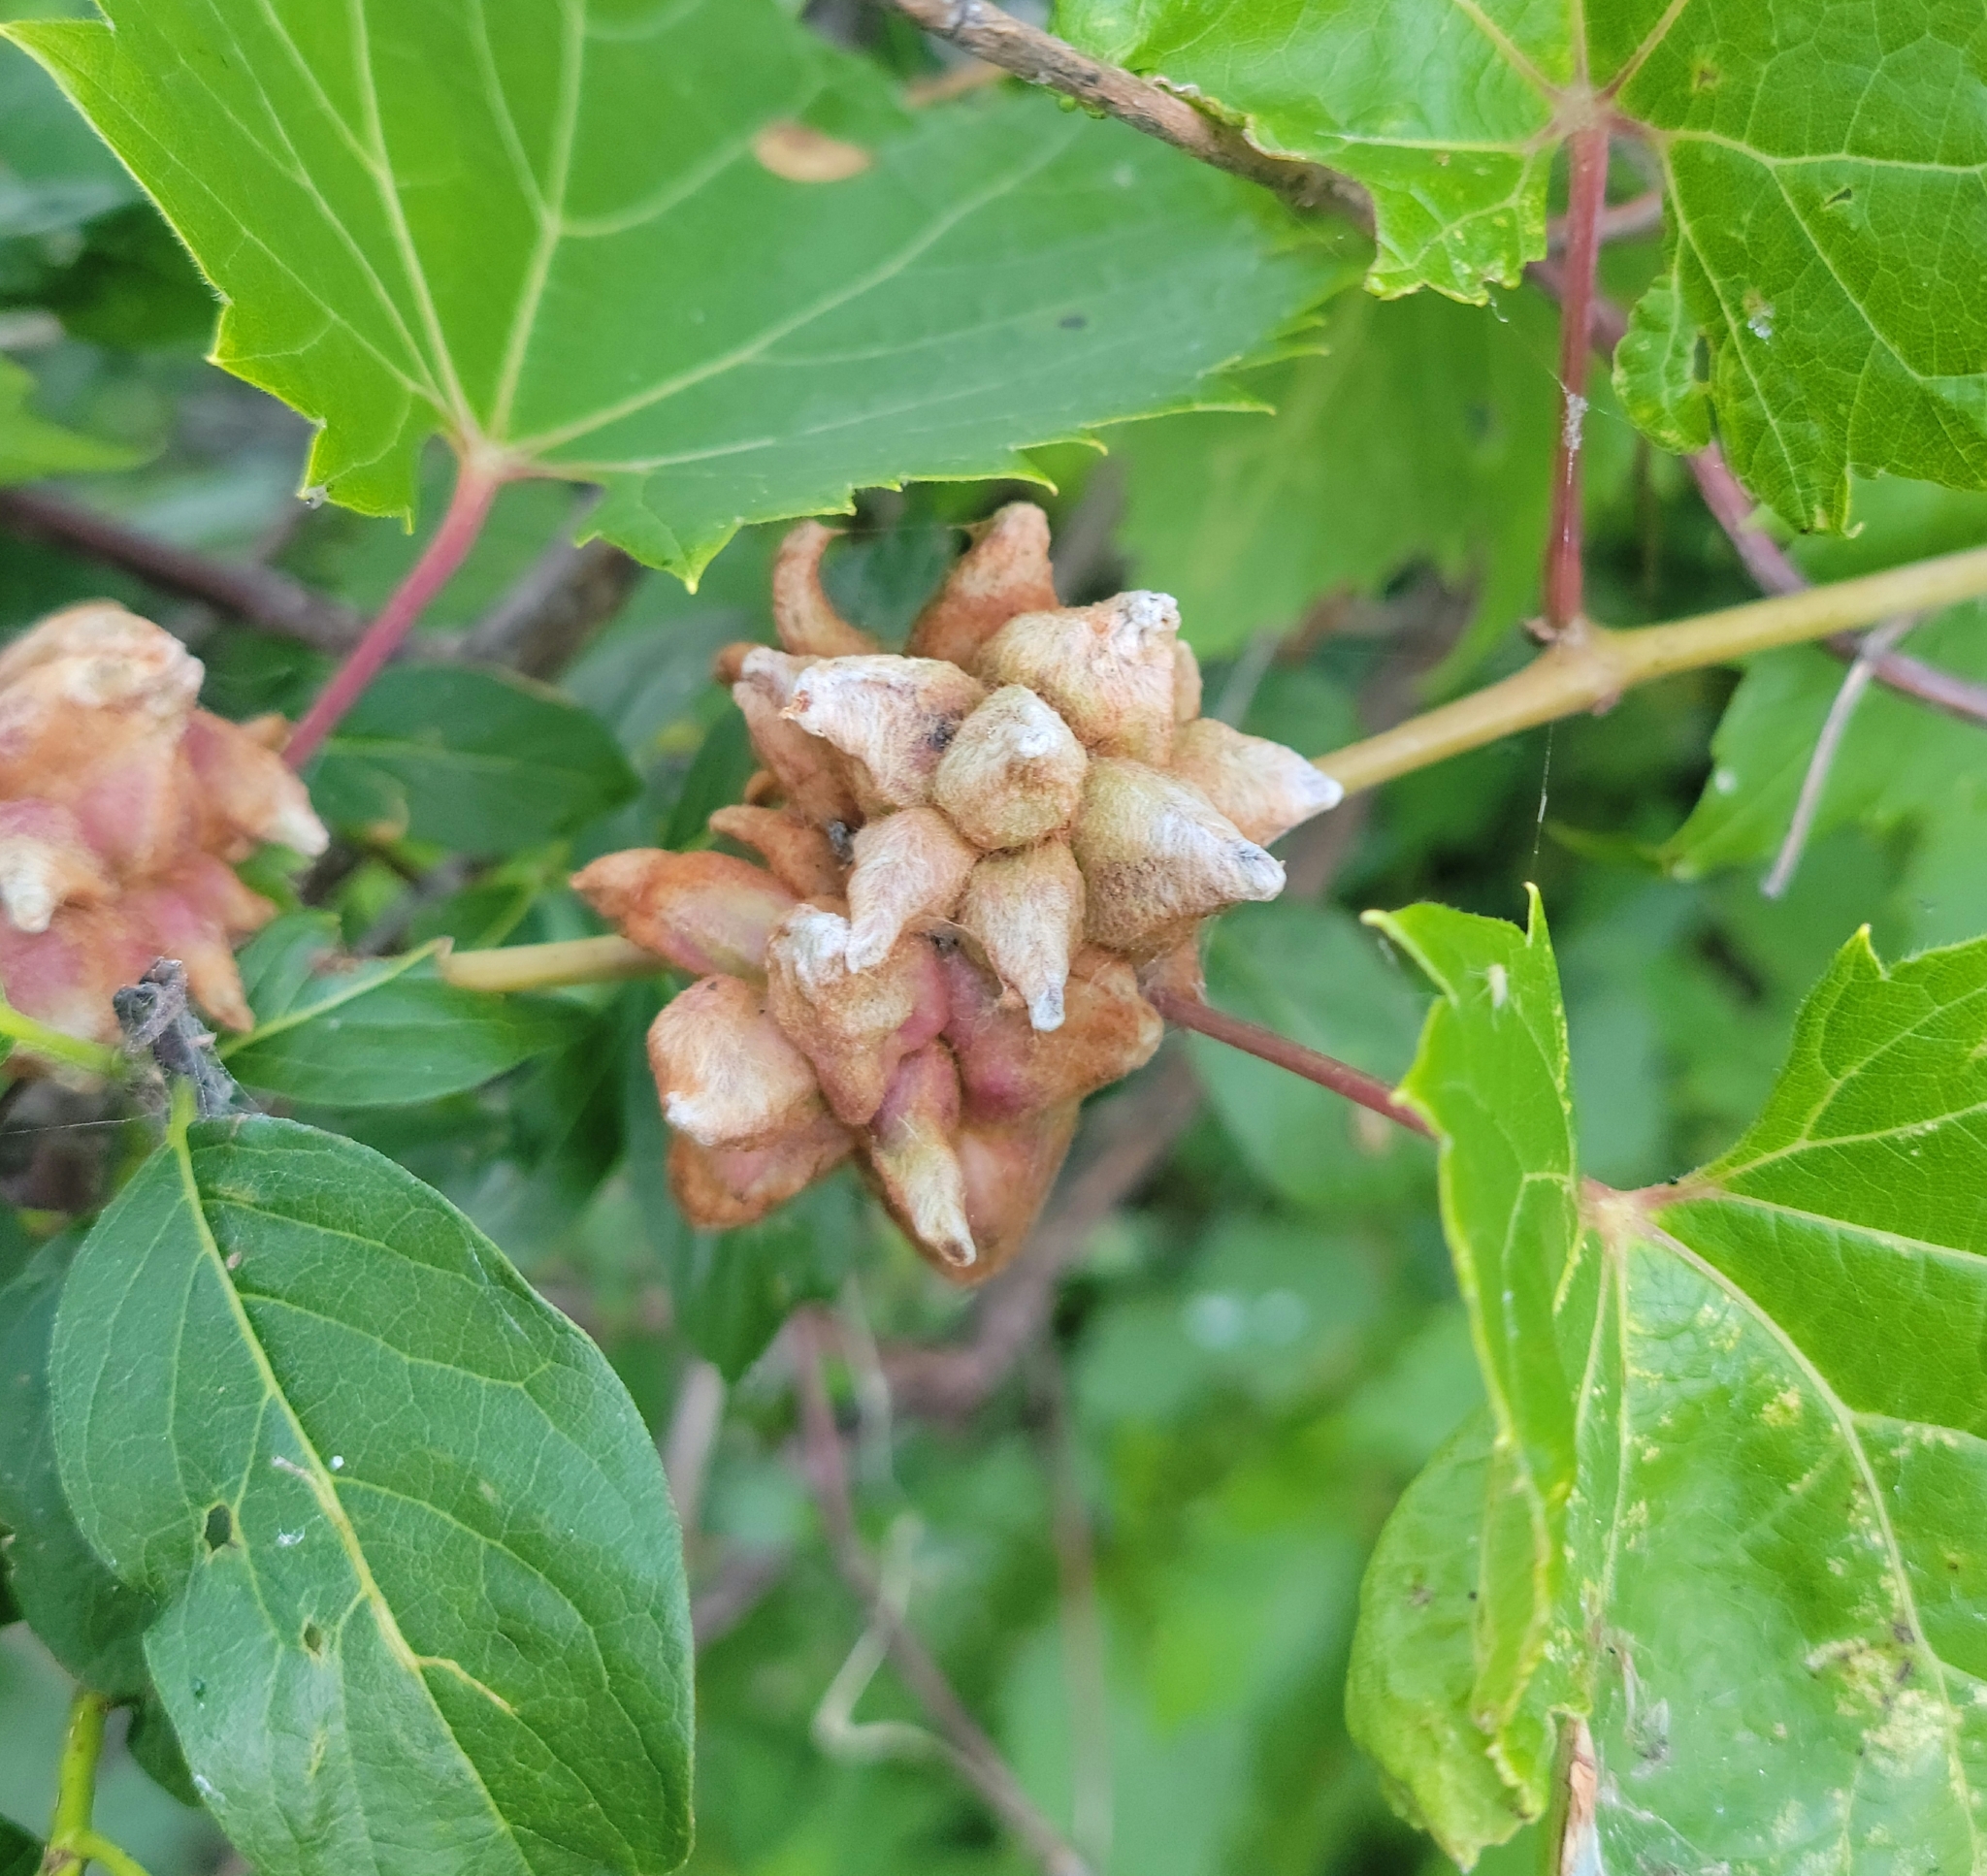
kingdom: Animalia
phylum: Arthropoda
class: Insecta
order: Diptera
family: Cecidomyiidae
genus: Ampelomyia
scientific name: Ampelomyia vitiscoryloides
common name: Grape filbert gall
